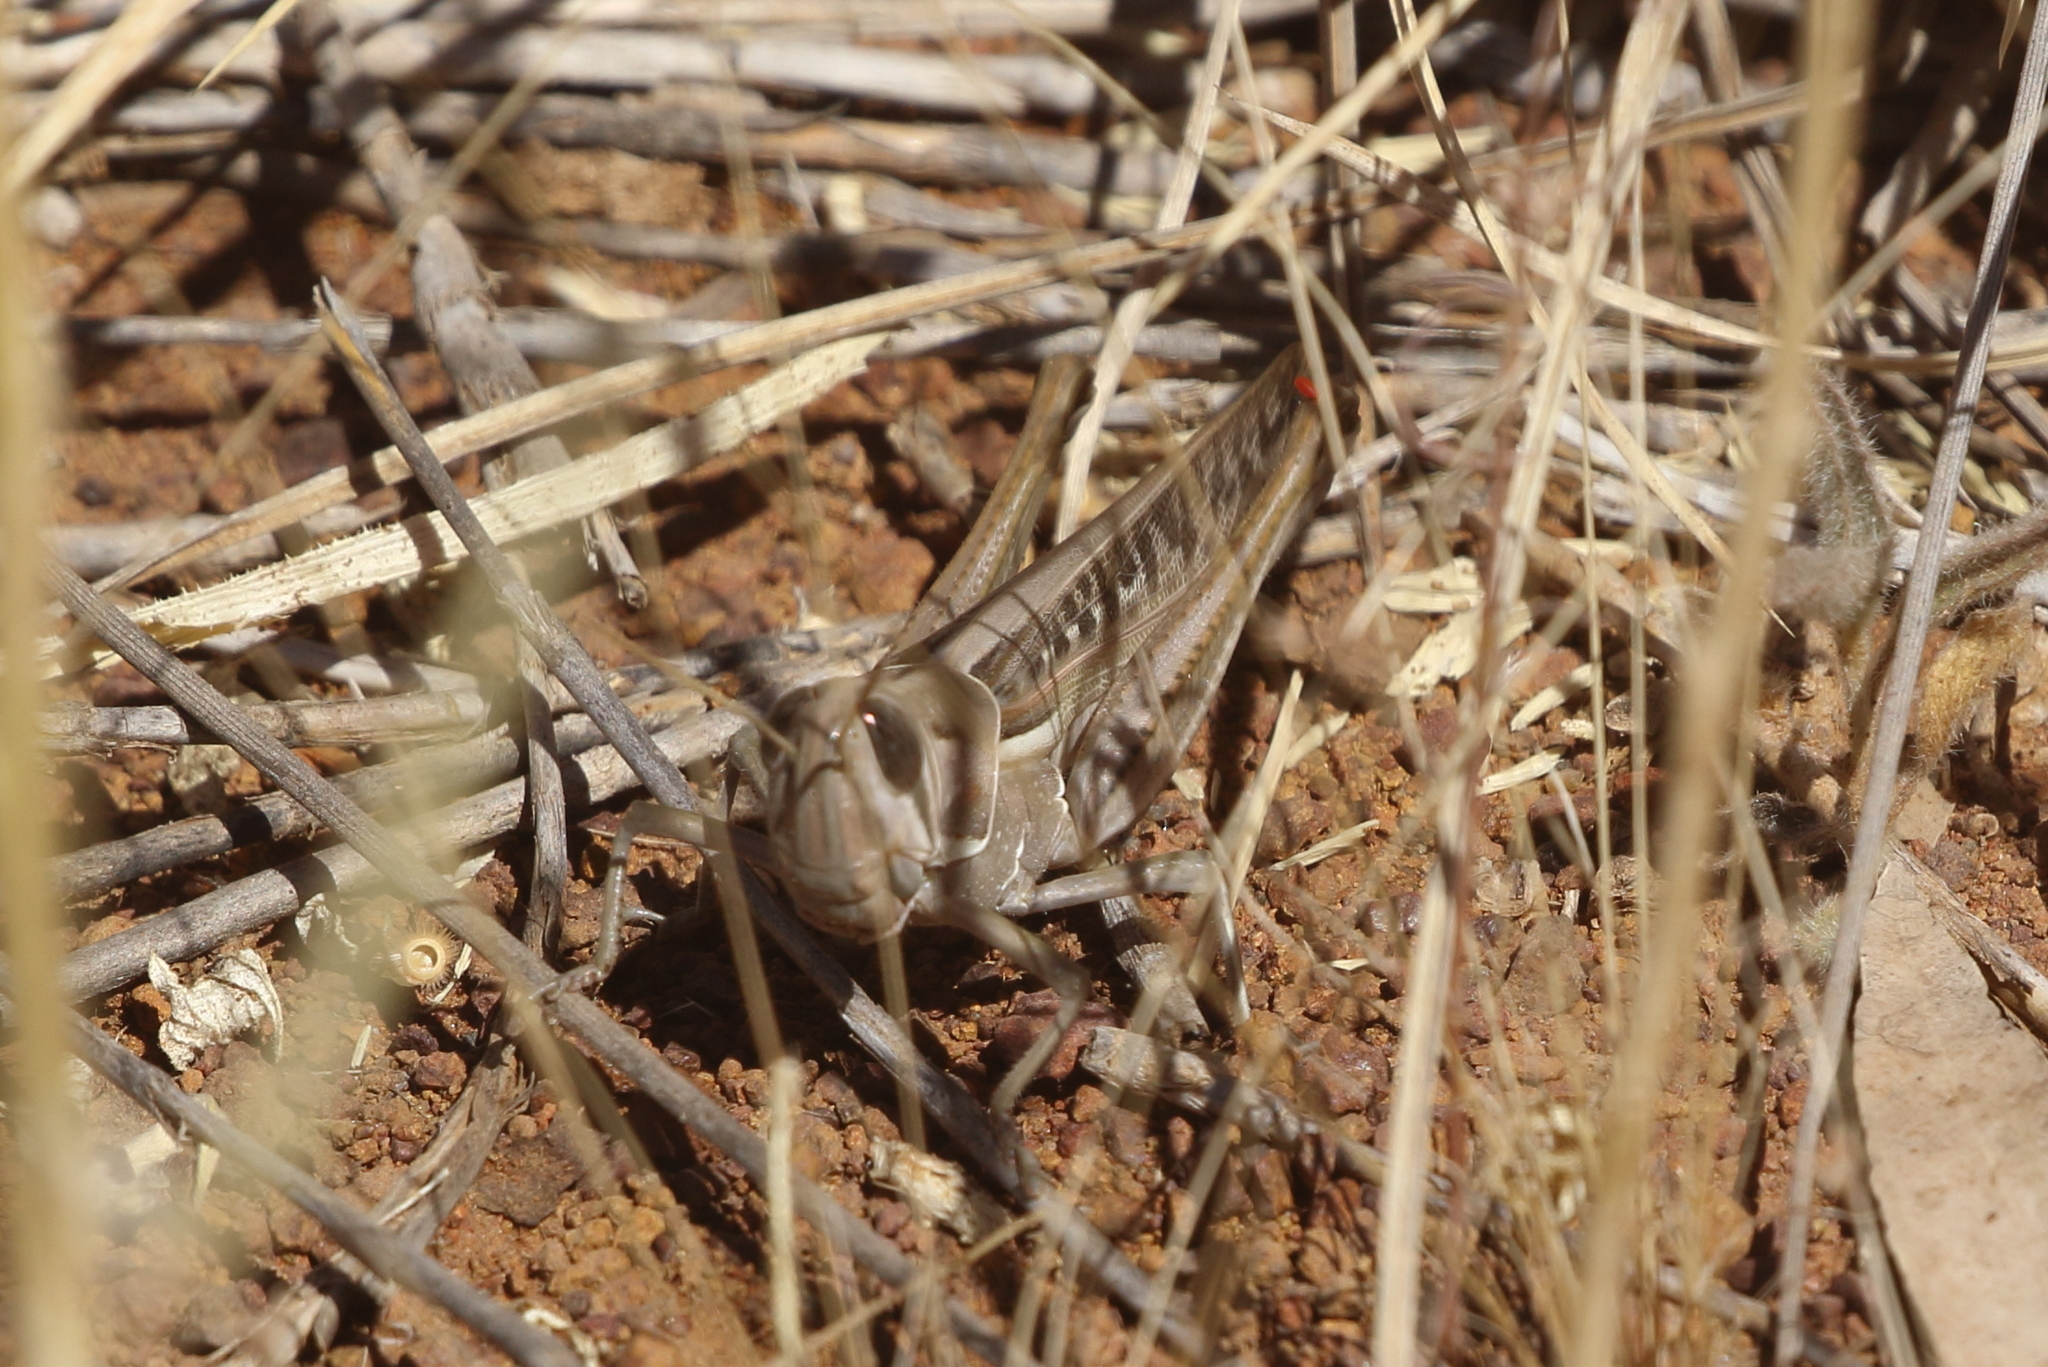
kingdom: Animalia
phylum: Arthropoda
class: Insecta
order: Orthoptera
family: Acrididae
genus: Austracris
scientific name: Austracris guttulosa
